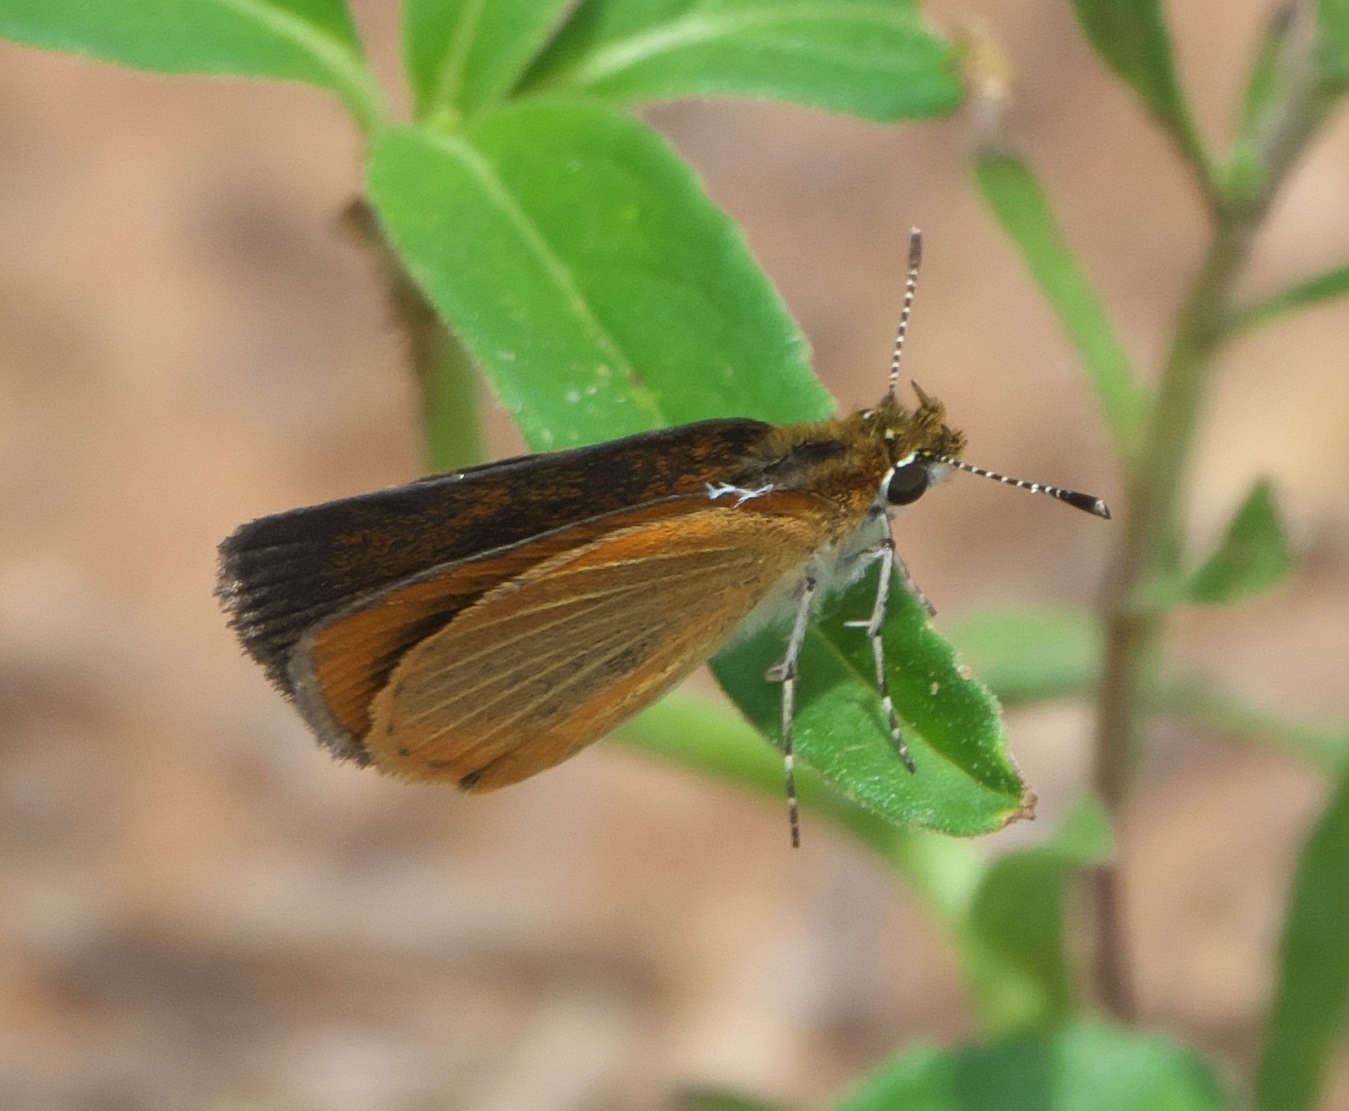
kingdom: Animalia
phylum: Arthropoda
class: Insecta
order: Lepidoptera
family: Hesperiidae
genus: Ancyloxypha
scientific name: Ancyloxypha numitor
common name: Least skipper
